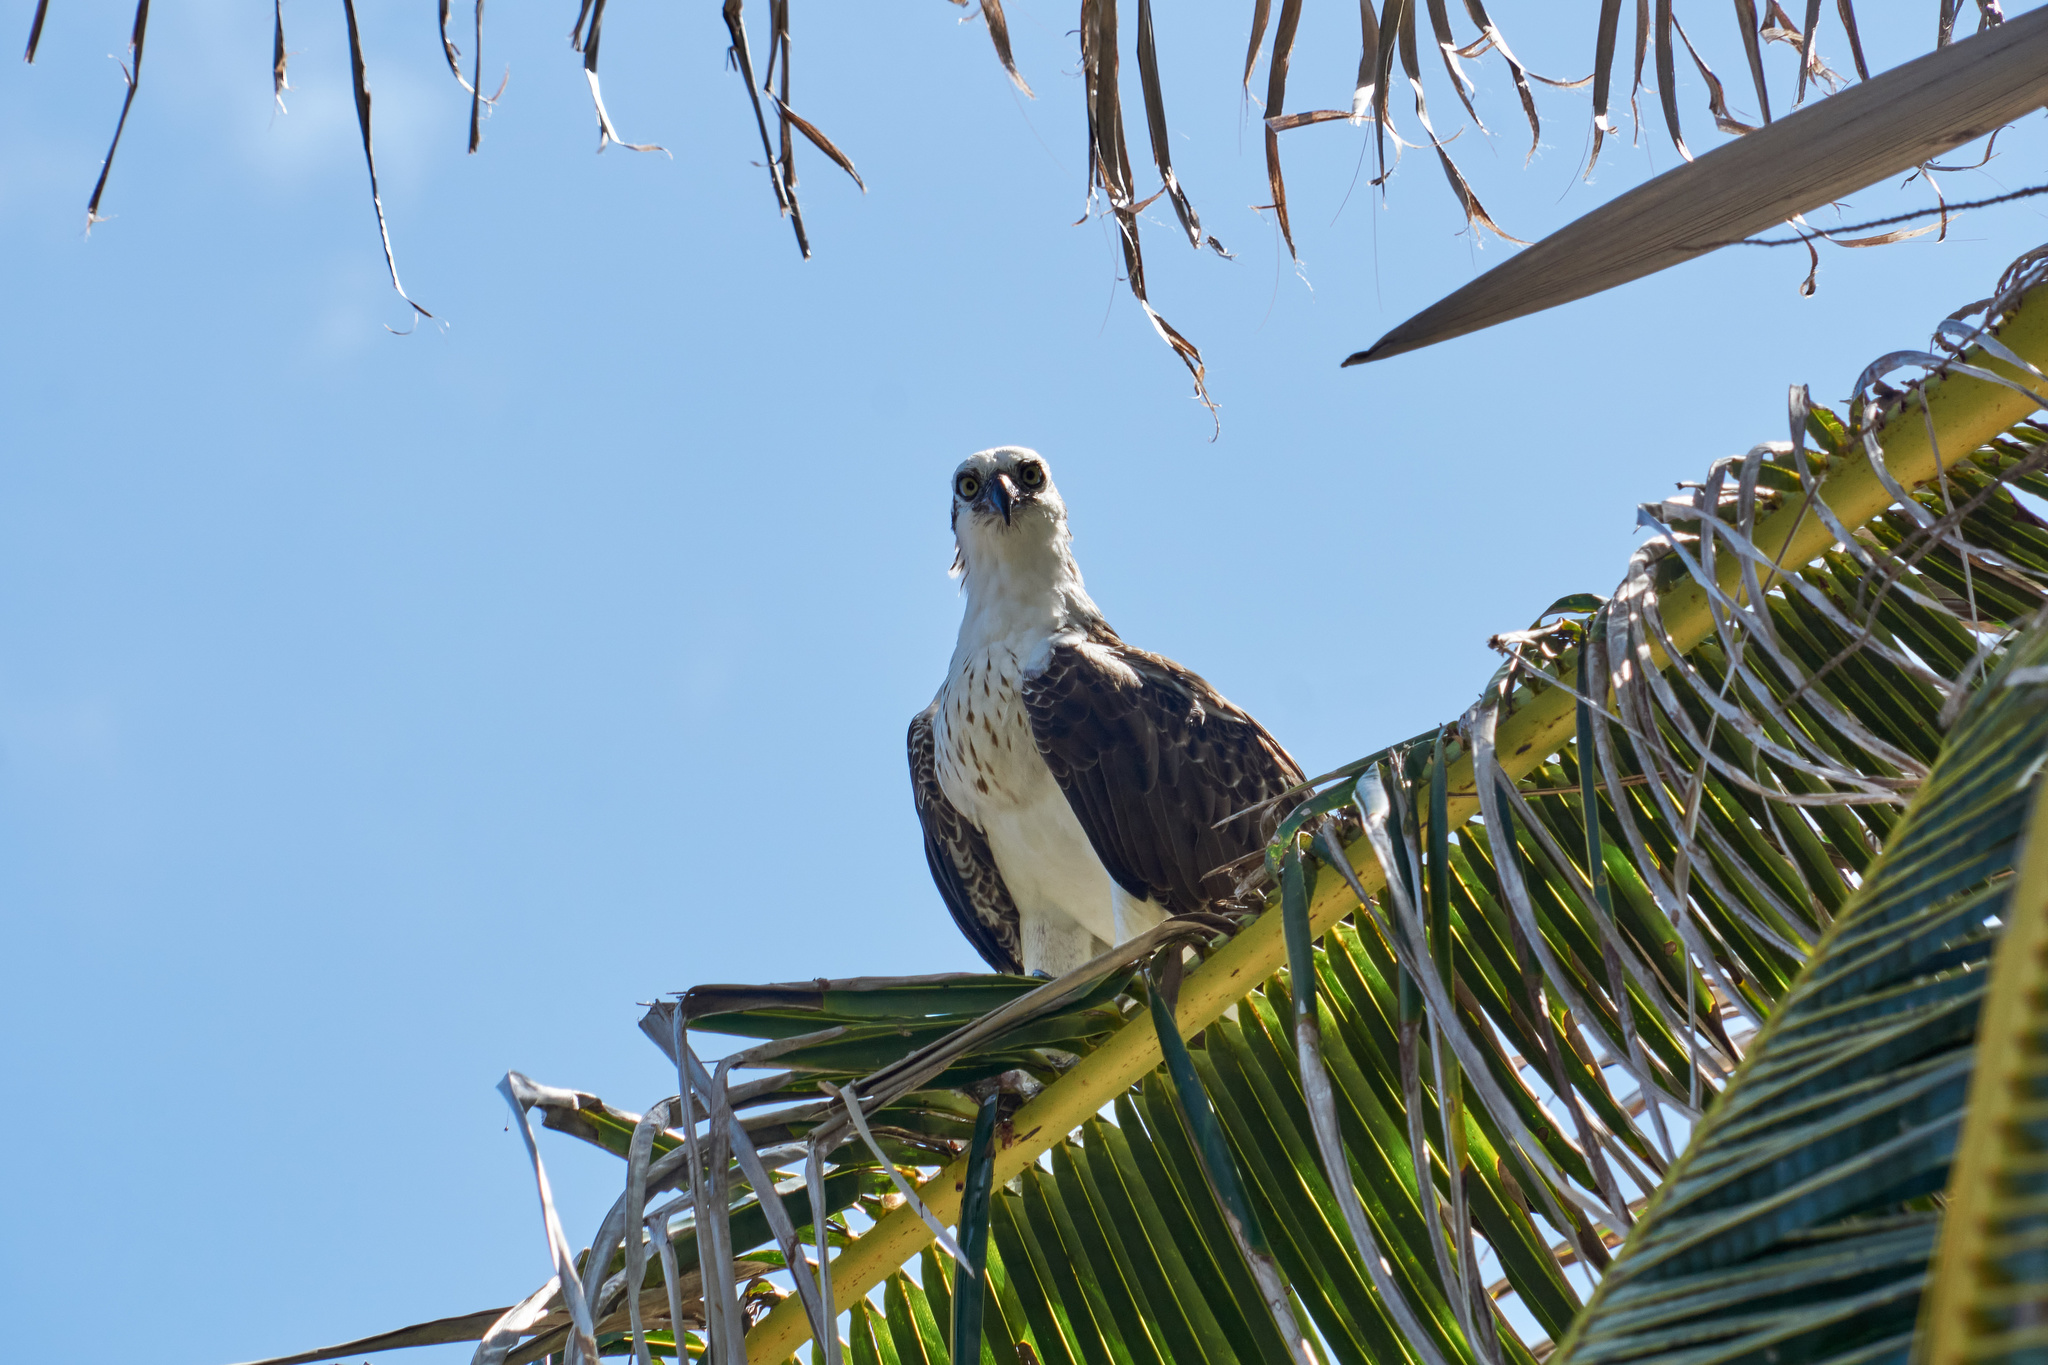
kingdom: Animalia
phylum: Chordata
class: Aves
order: Accipitriformes
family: Pandionidae
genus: Pandion
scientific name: Pandion haliaetus
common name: Osprey
